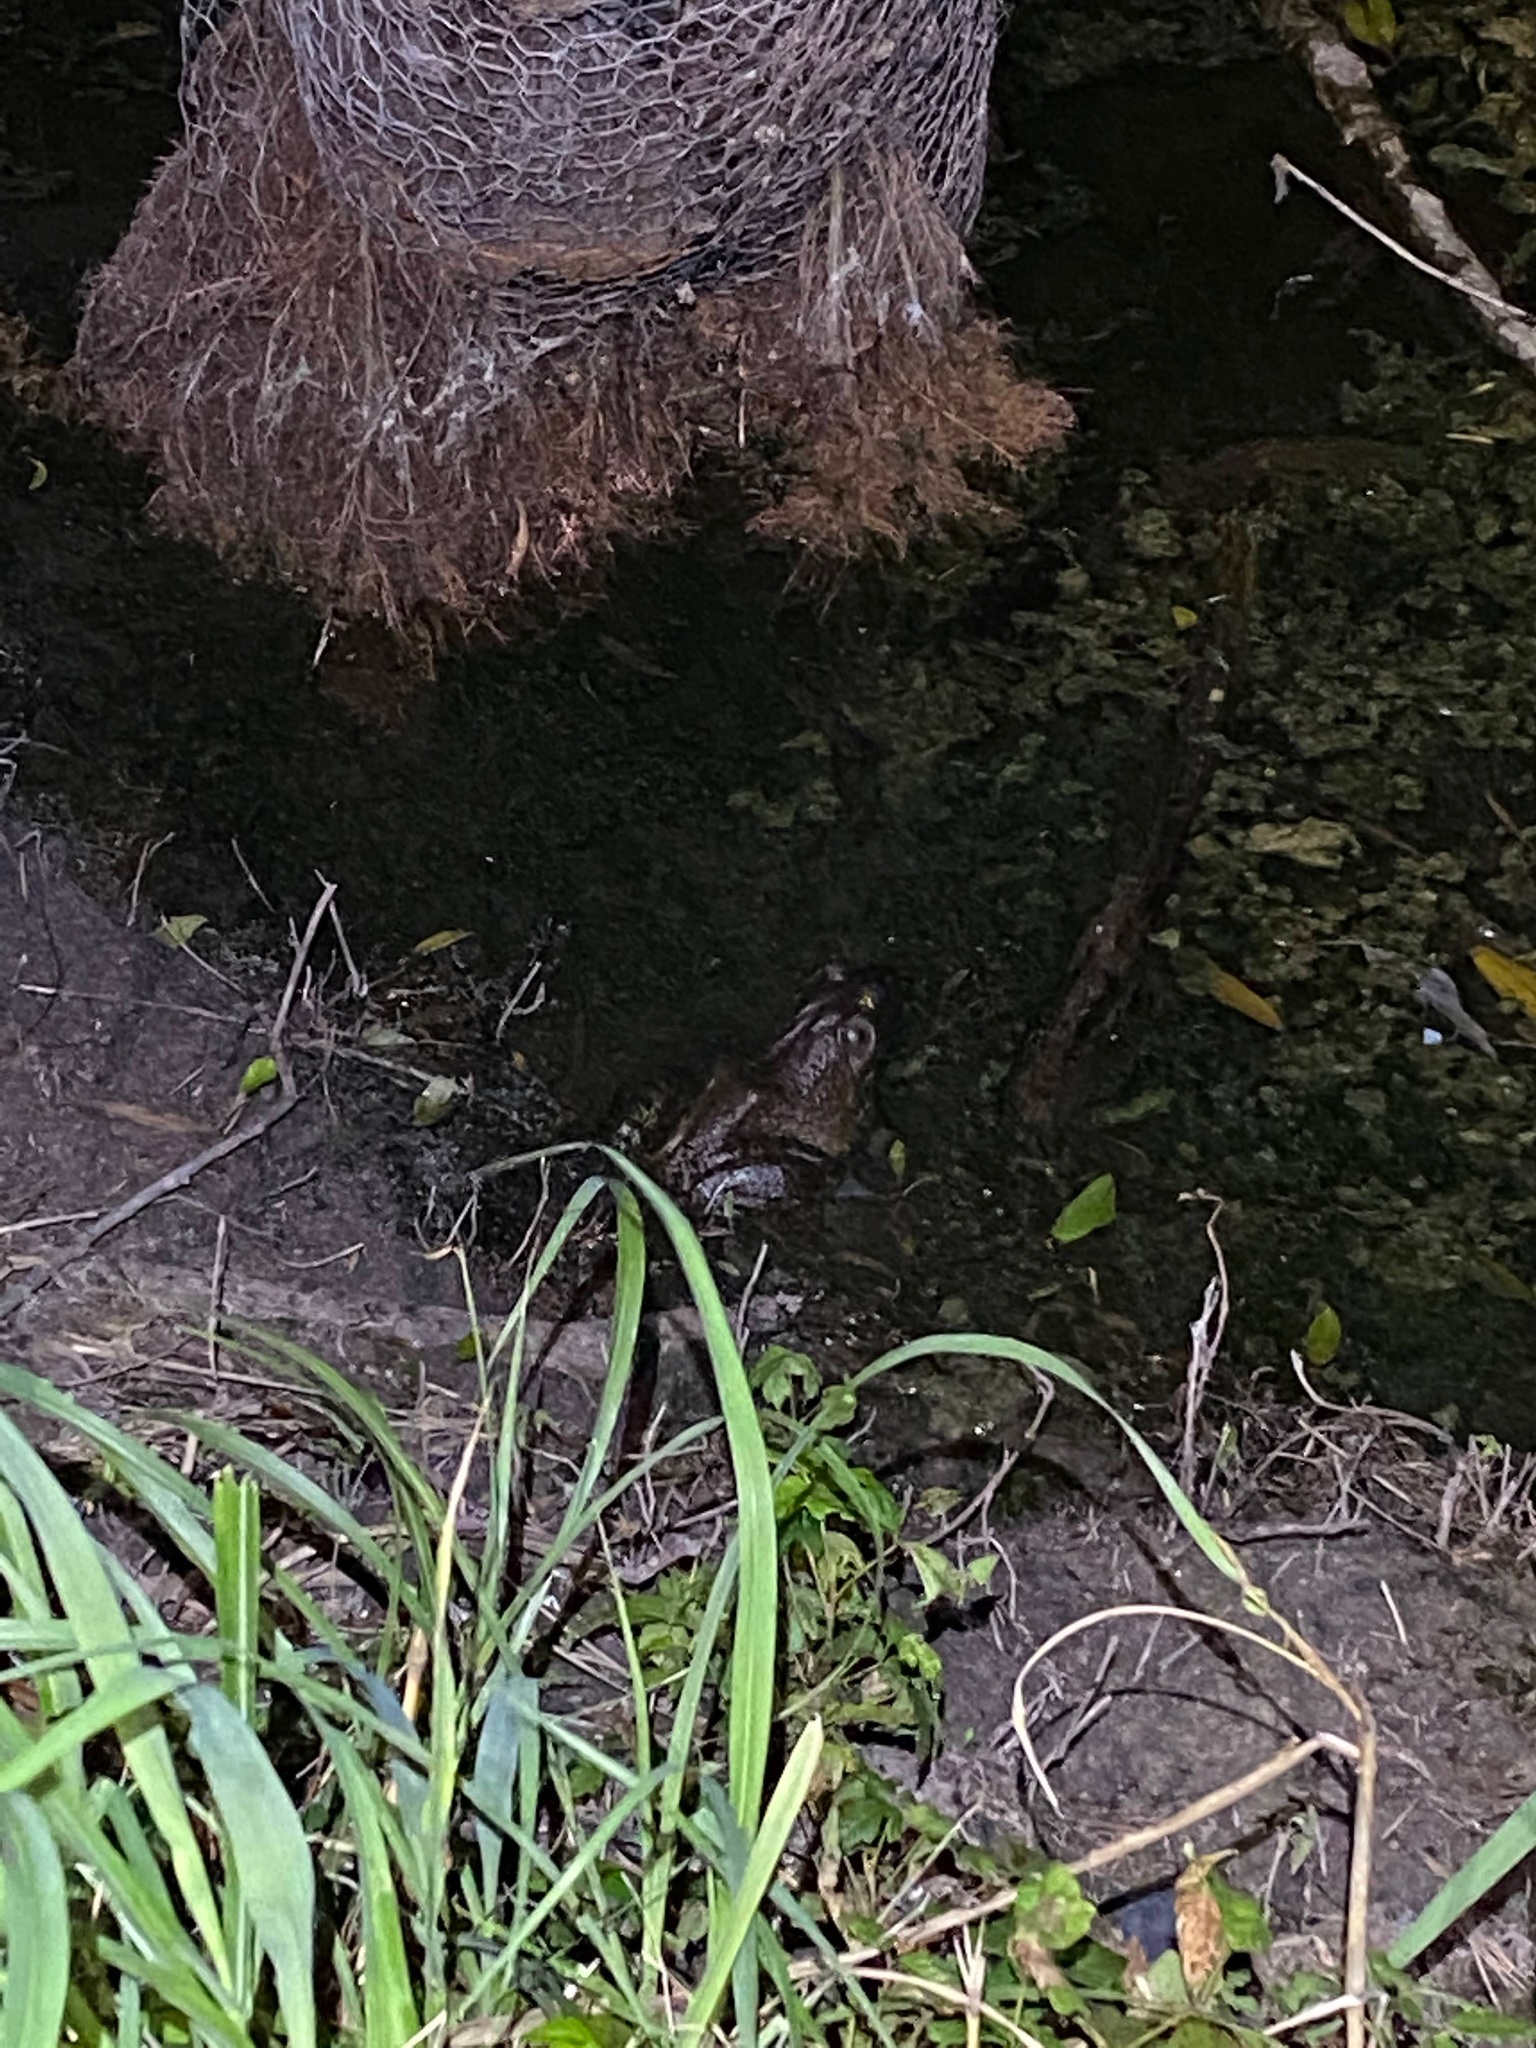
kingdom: Animalia
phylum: Chordata
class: Amphibia
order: Anura
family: Ranidae
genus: Lithobates
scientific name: Lithobates catesbeianus
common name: American bullfrog
